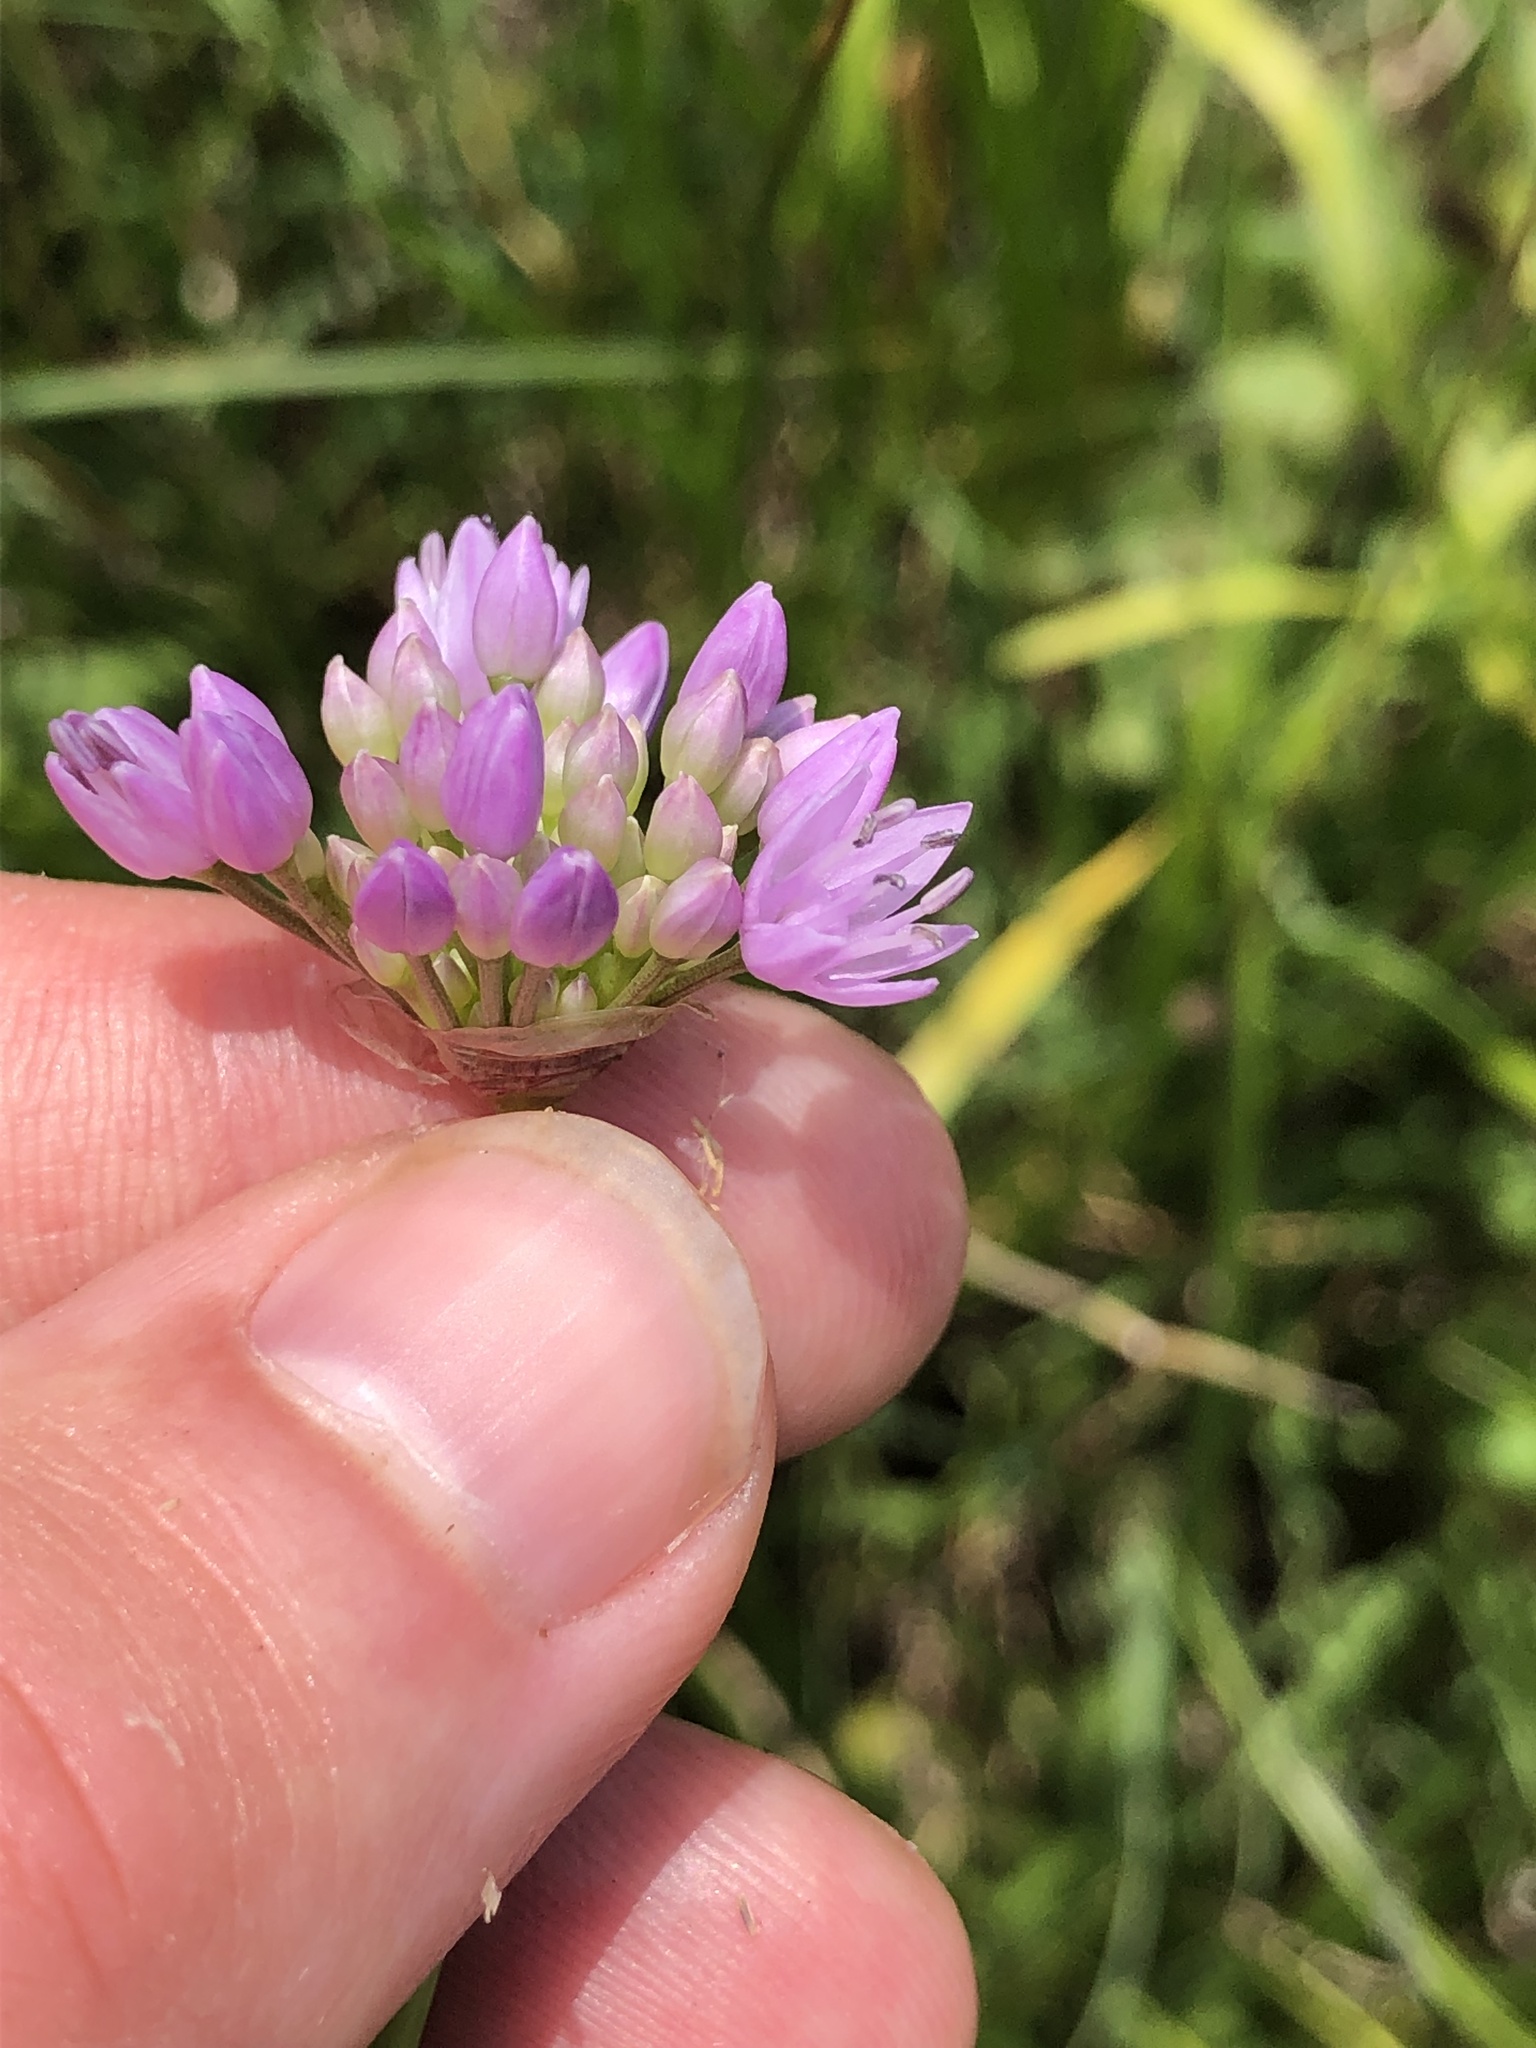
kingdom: Plantae
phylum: Tracheophyta
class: Liliopsida
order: Asparagales
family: Amaryllidaceae
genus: Allium
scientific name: Allium angulosum
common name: Mouse garlic
